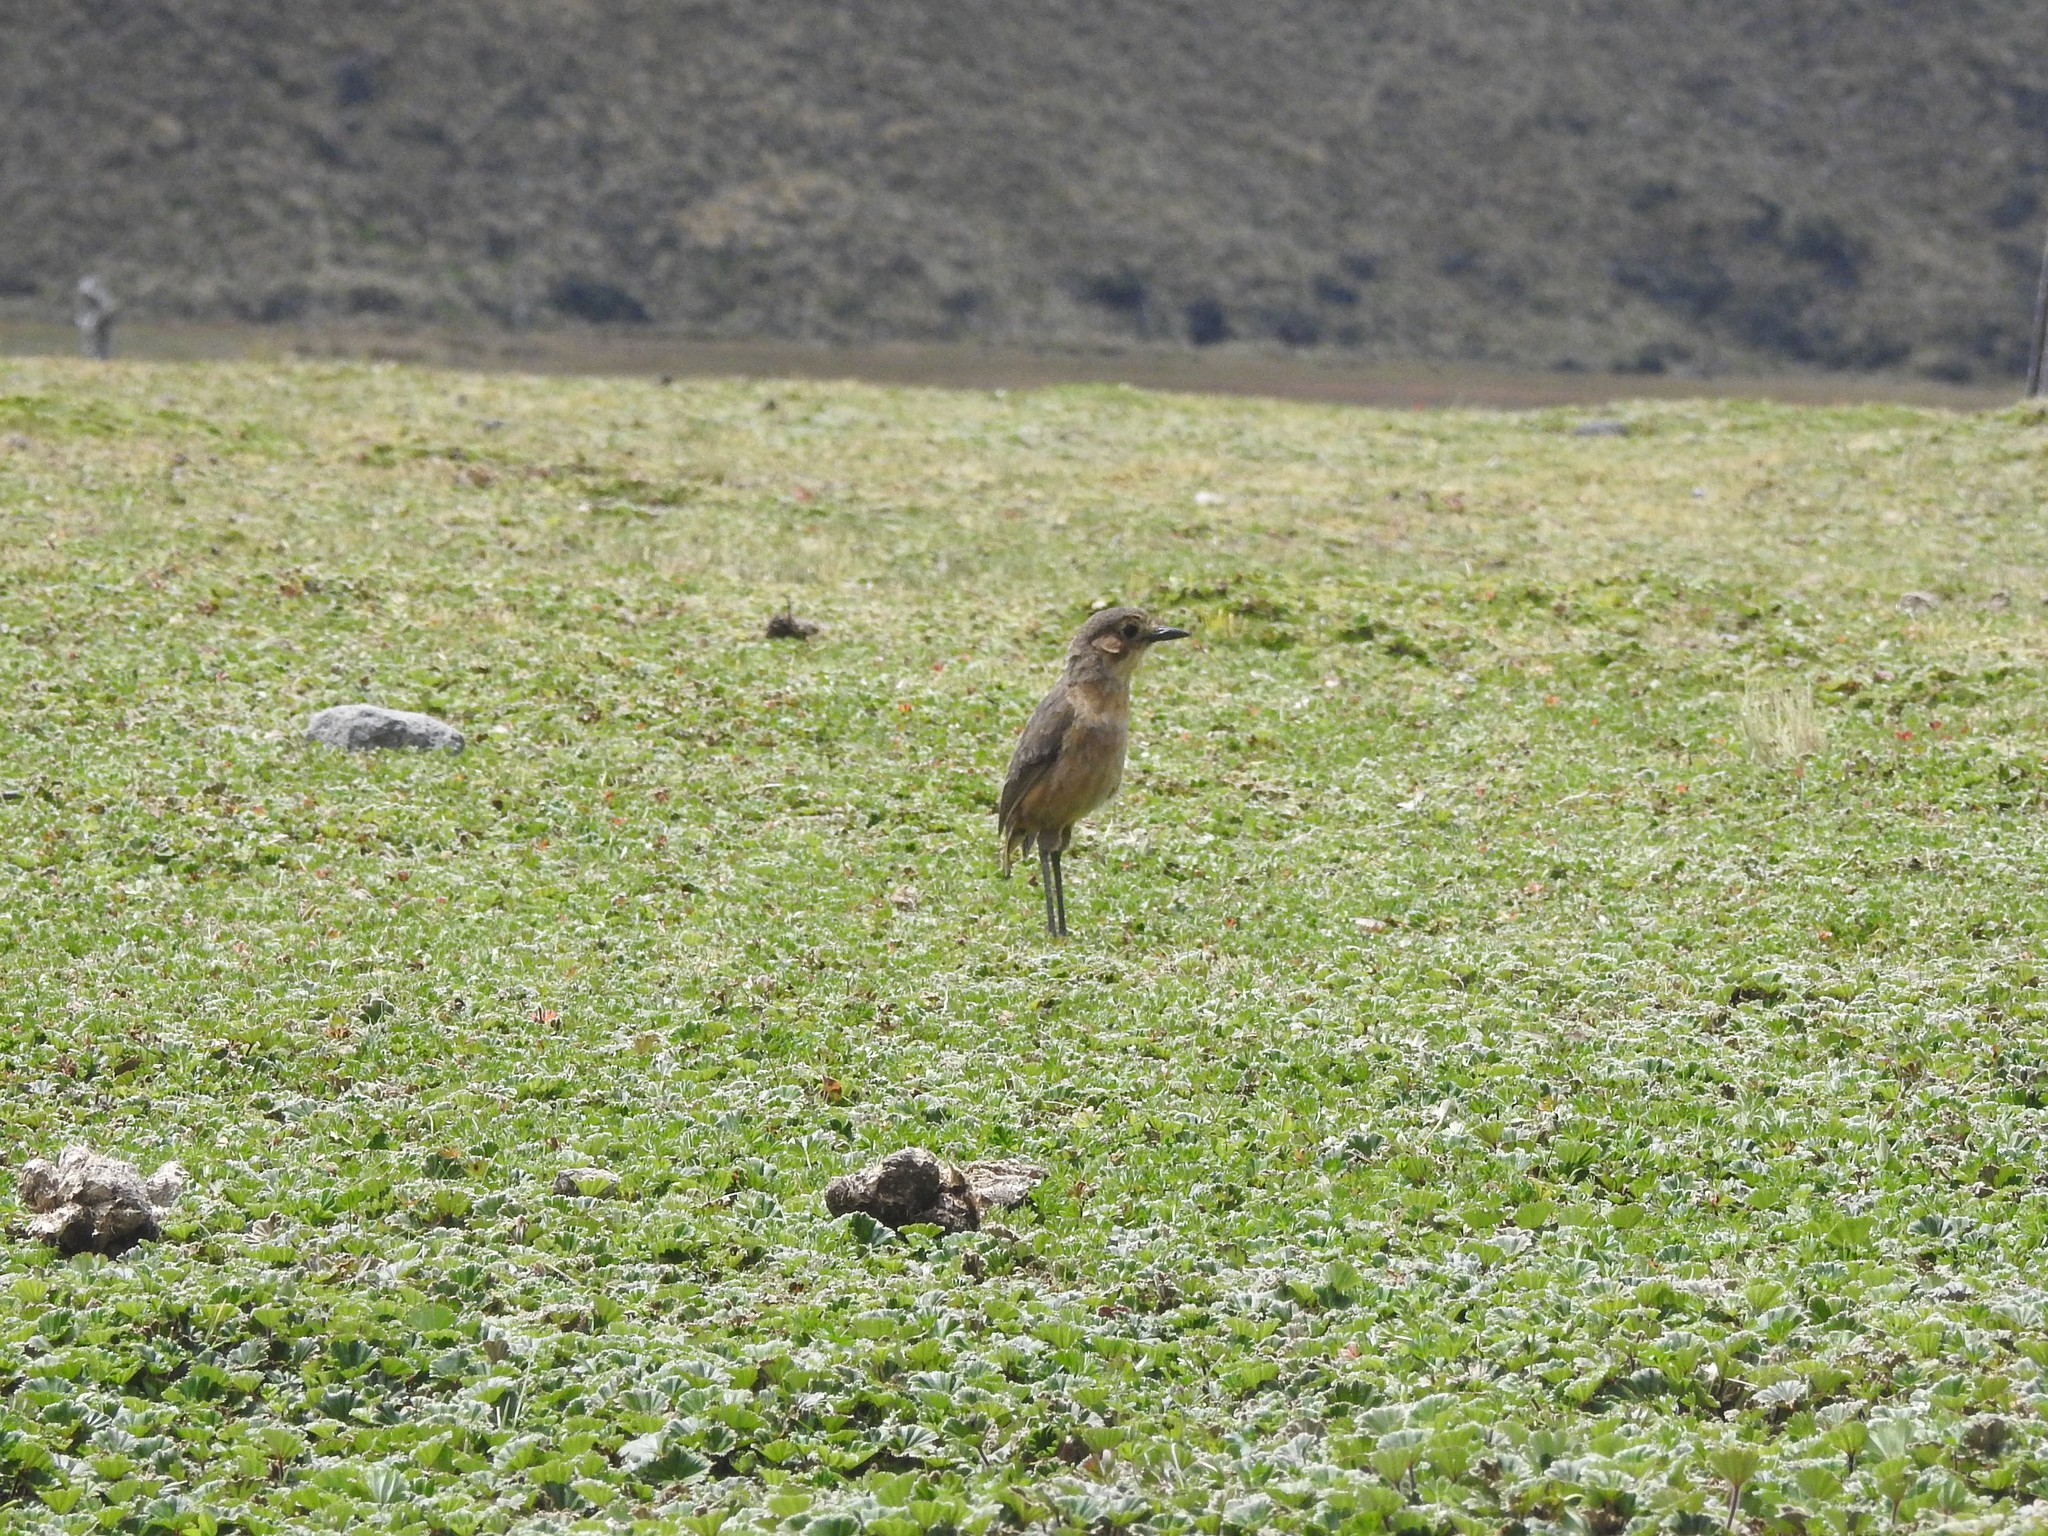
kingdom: Animalia
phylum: Chordata
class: Aves
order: Passeriformes
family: Grallariidae
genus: Grallaria
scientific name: Grallaria quitensis
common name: Tawny antpitta
